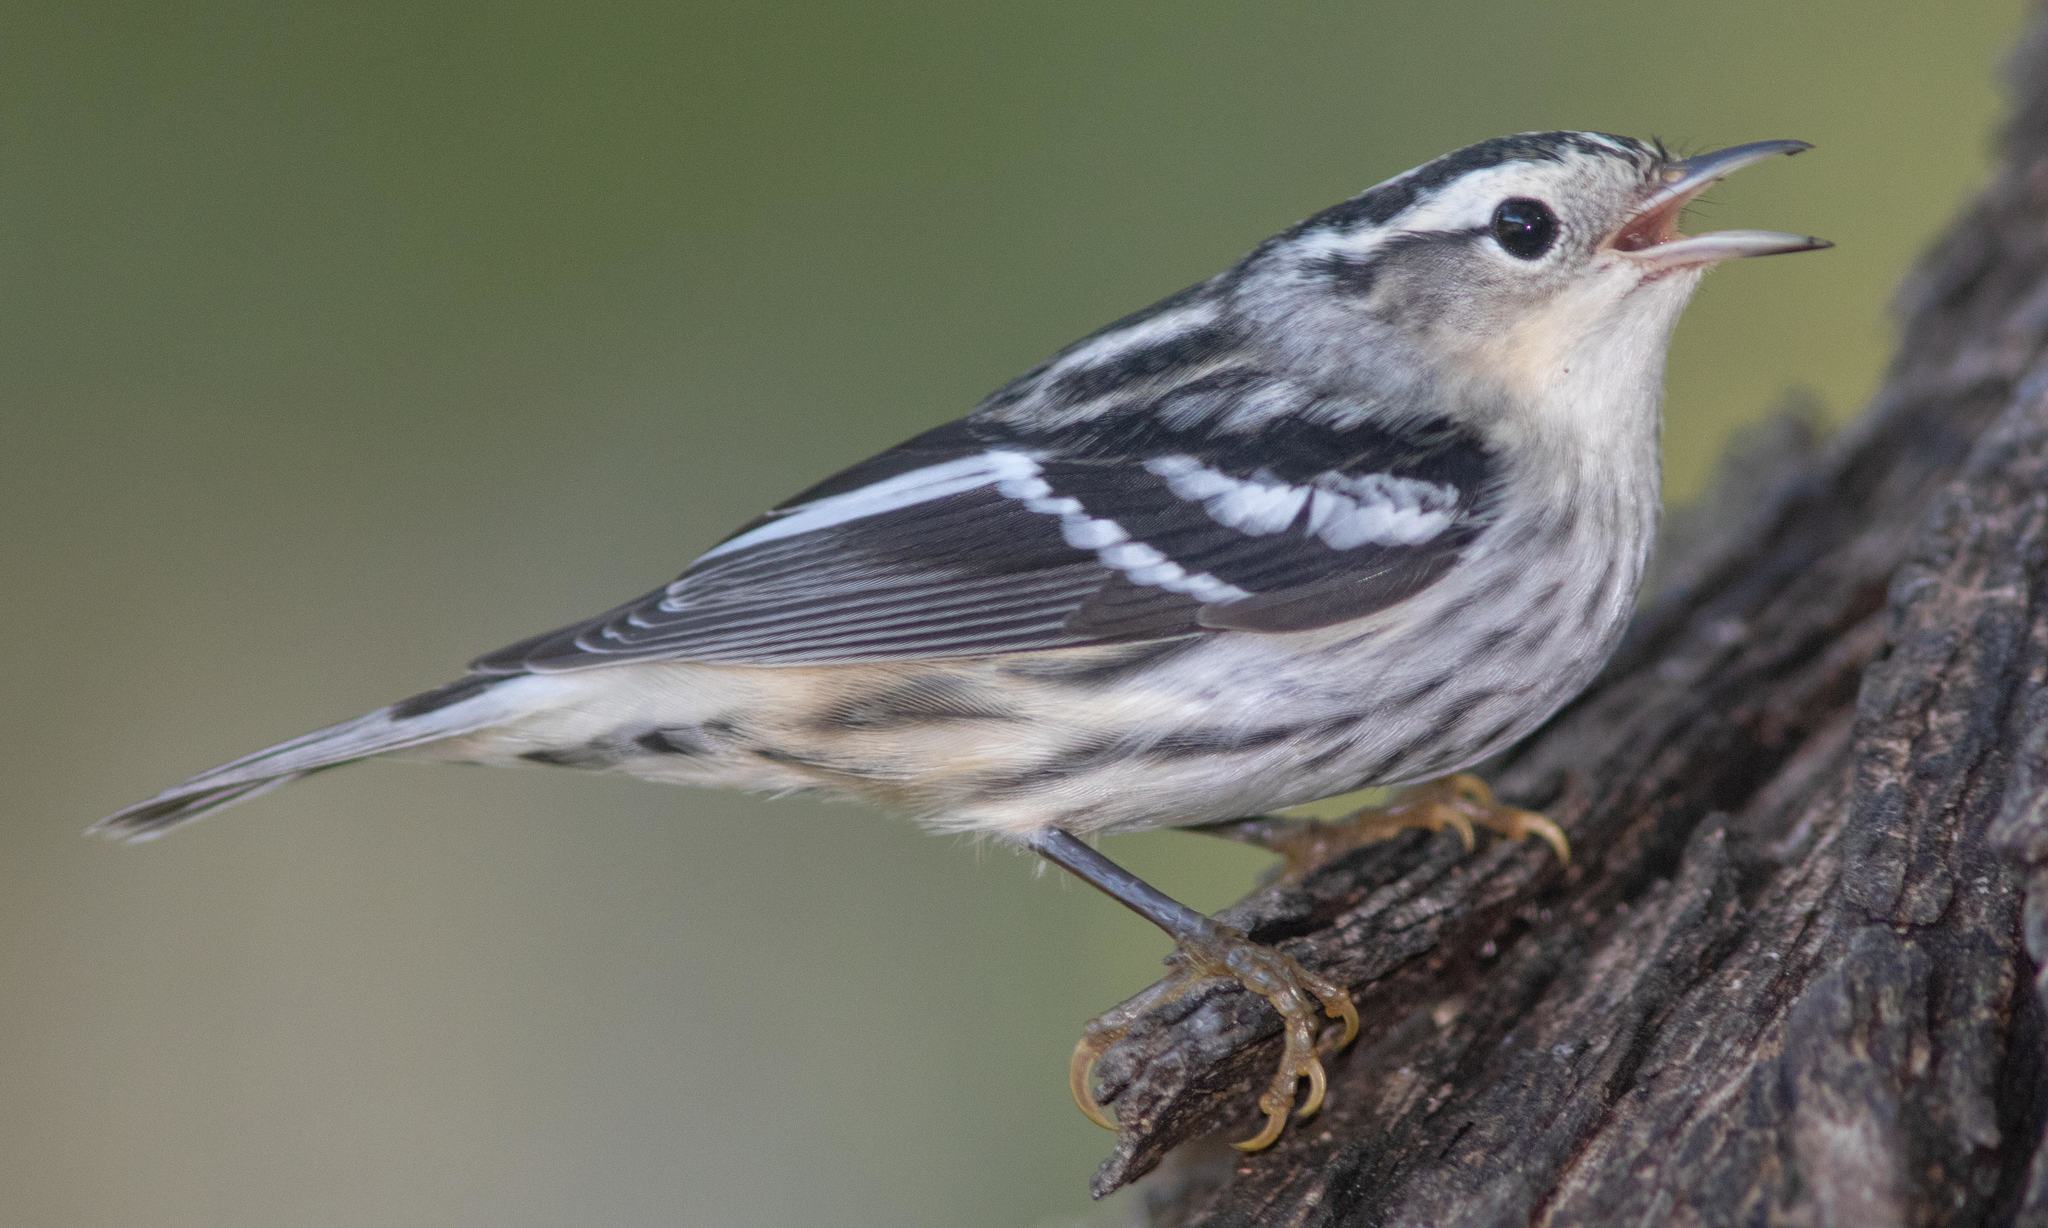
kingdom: Animalia
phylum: Chordata
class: Aves
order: Passeriformes
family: Parulidae
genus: Mniotilta
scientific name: Mniotilta varia
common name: Black-and-white warbler
